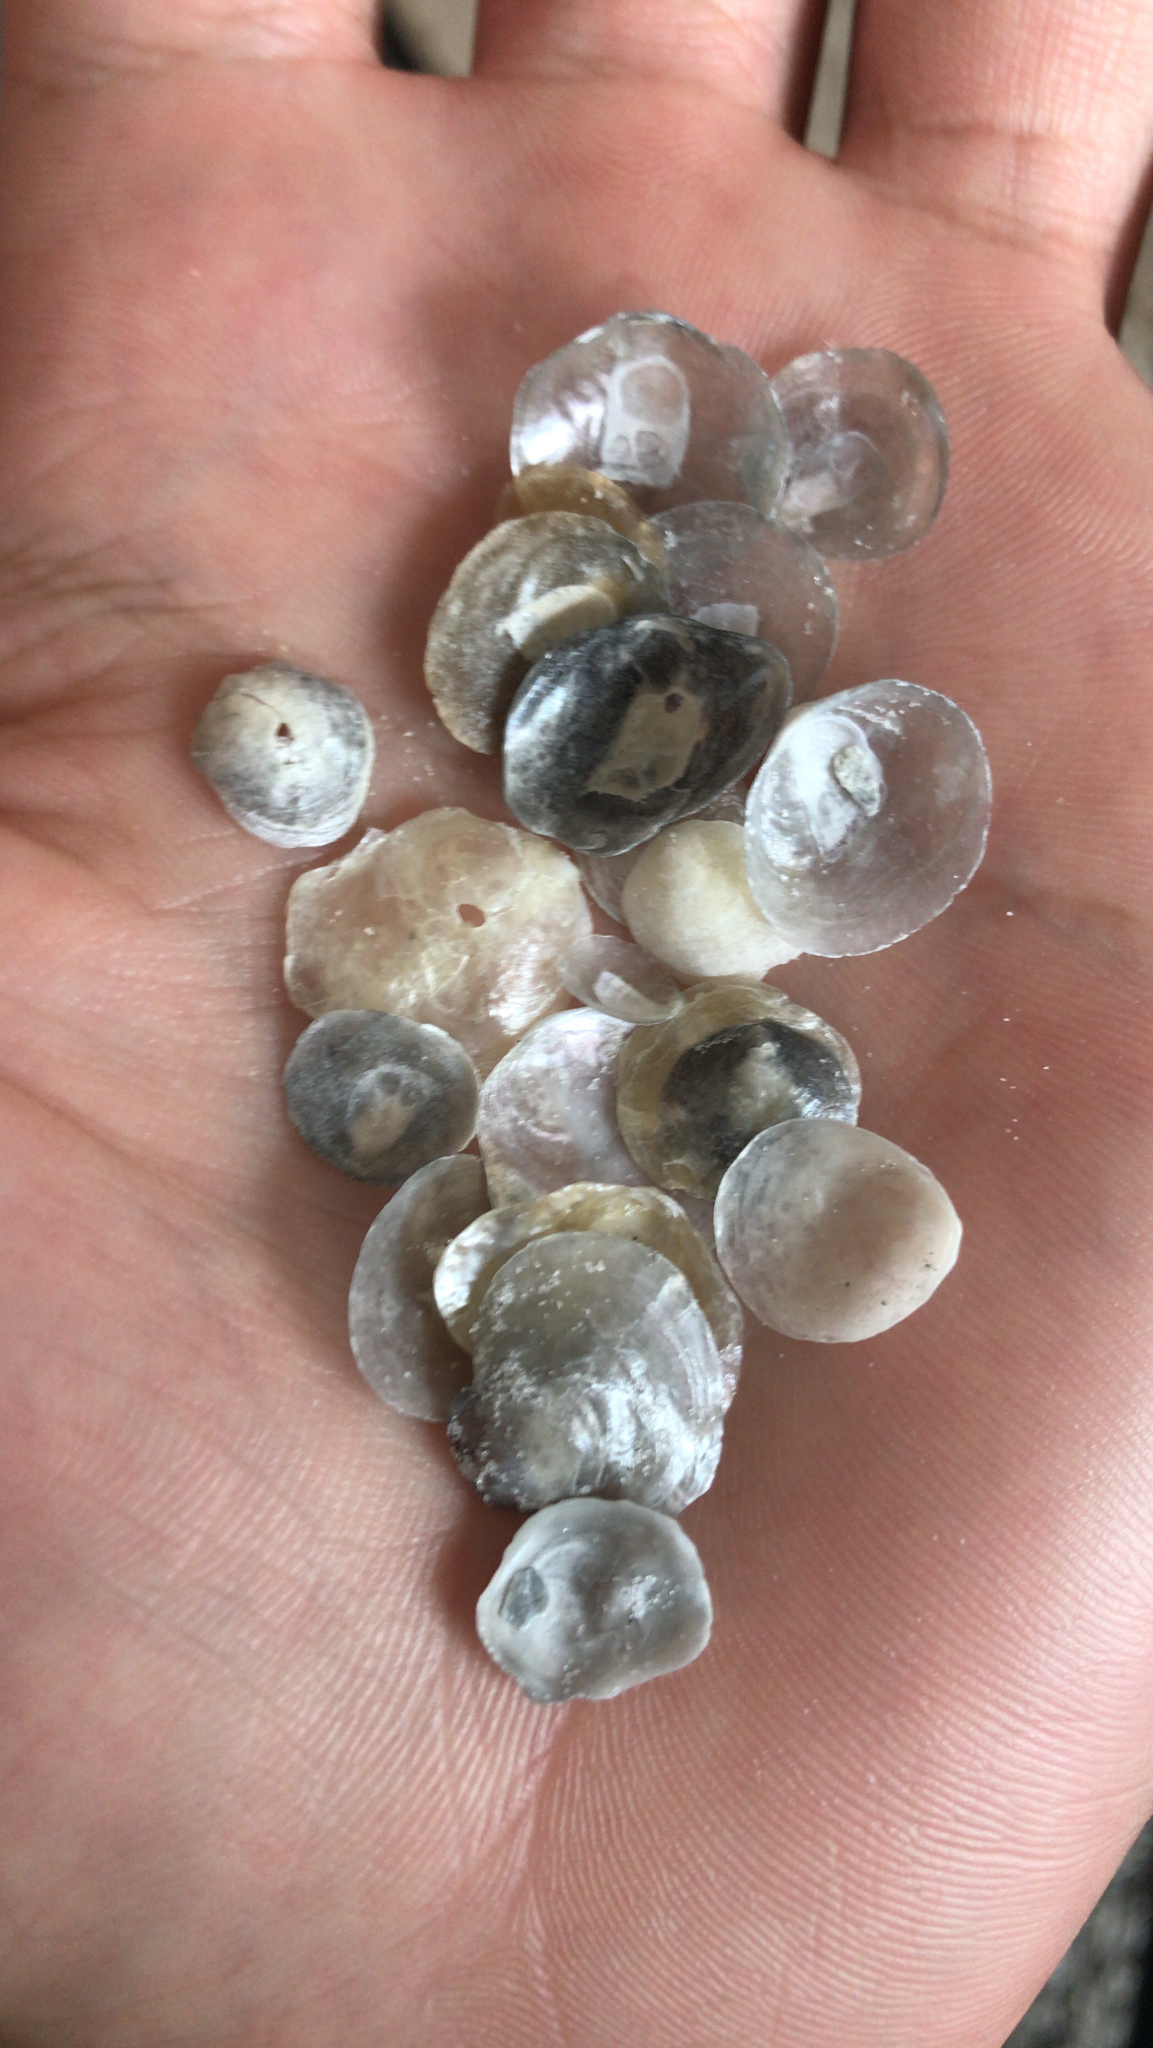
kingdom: Animalia
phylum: Mollusca
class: Bivalvia
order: Pectinida
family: Anomiidae
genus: Anomia
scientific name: Anomia simplex
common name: Common jingle shell
